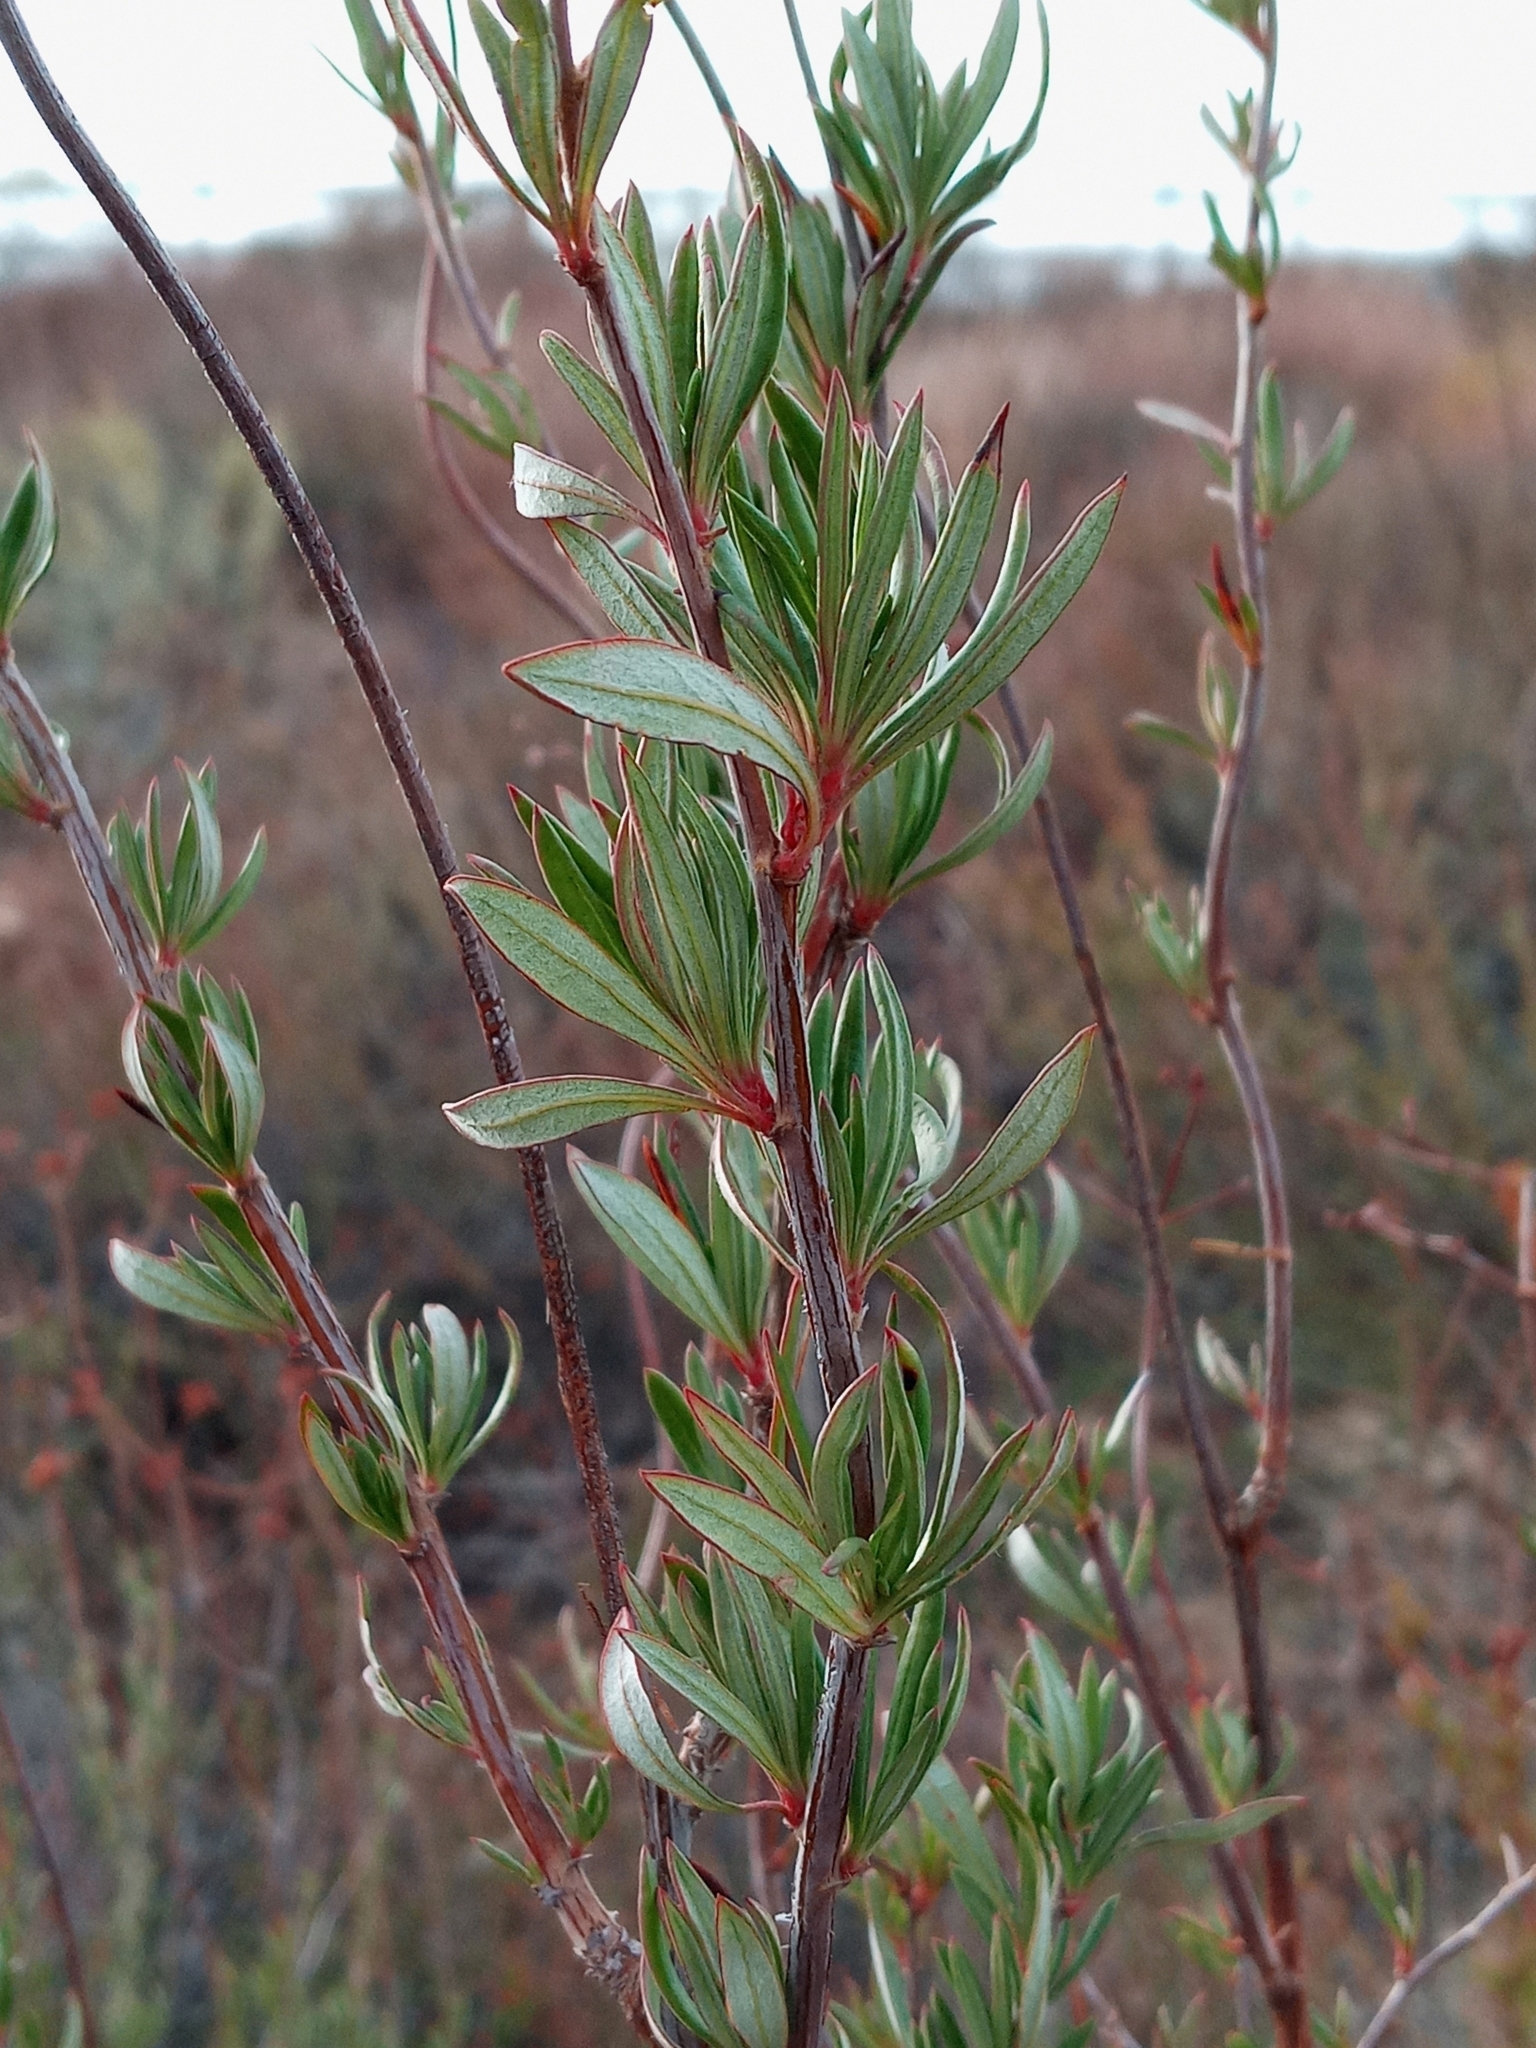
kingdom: Plantae
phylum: Tracheophyta
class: Magnoliopsida
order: Caryophyllales
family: Polygonaceae
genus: Eriogonum
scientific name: Eriogonum fasciculatum
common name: California wild buckwheat
